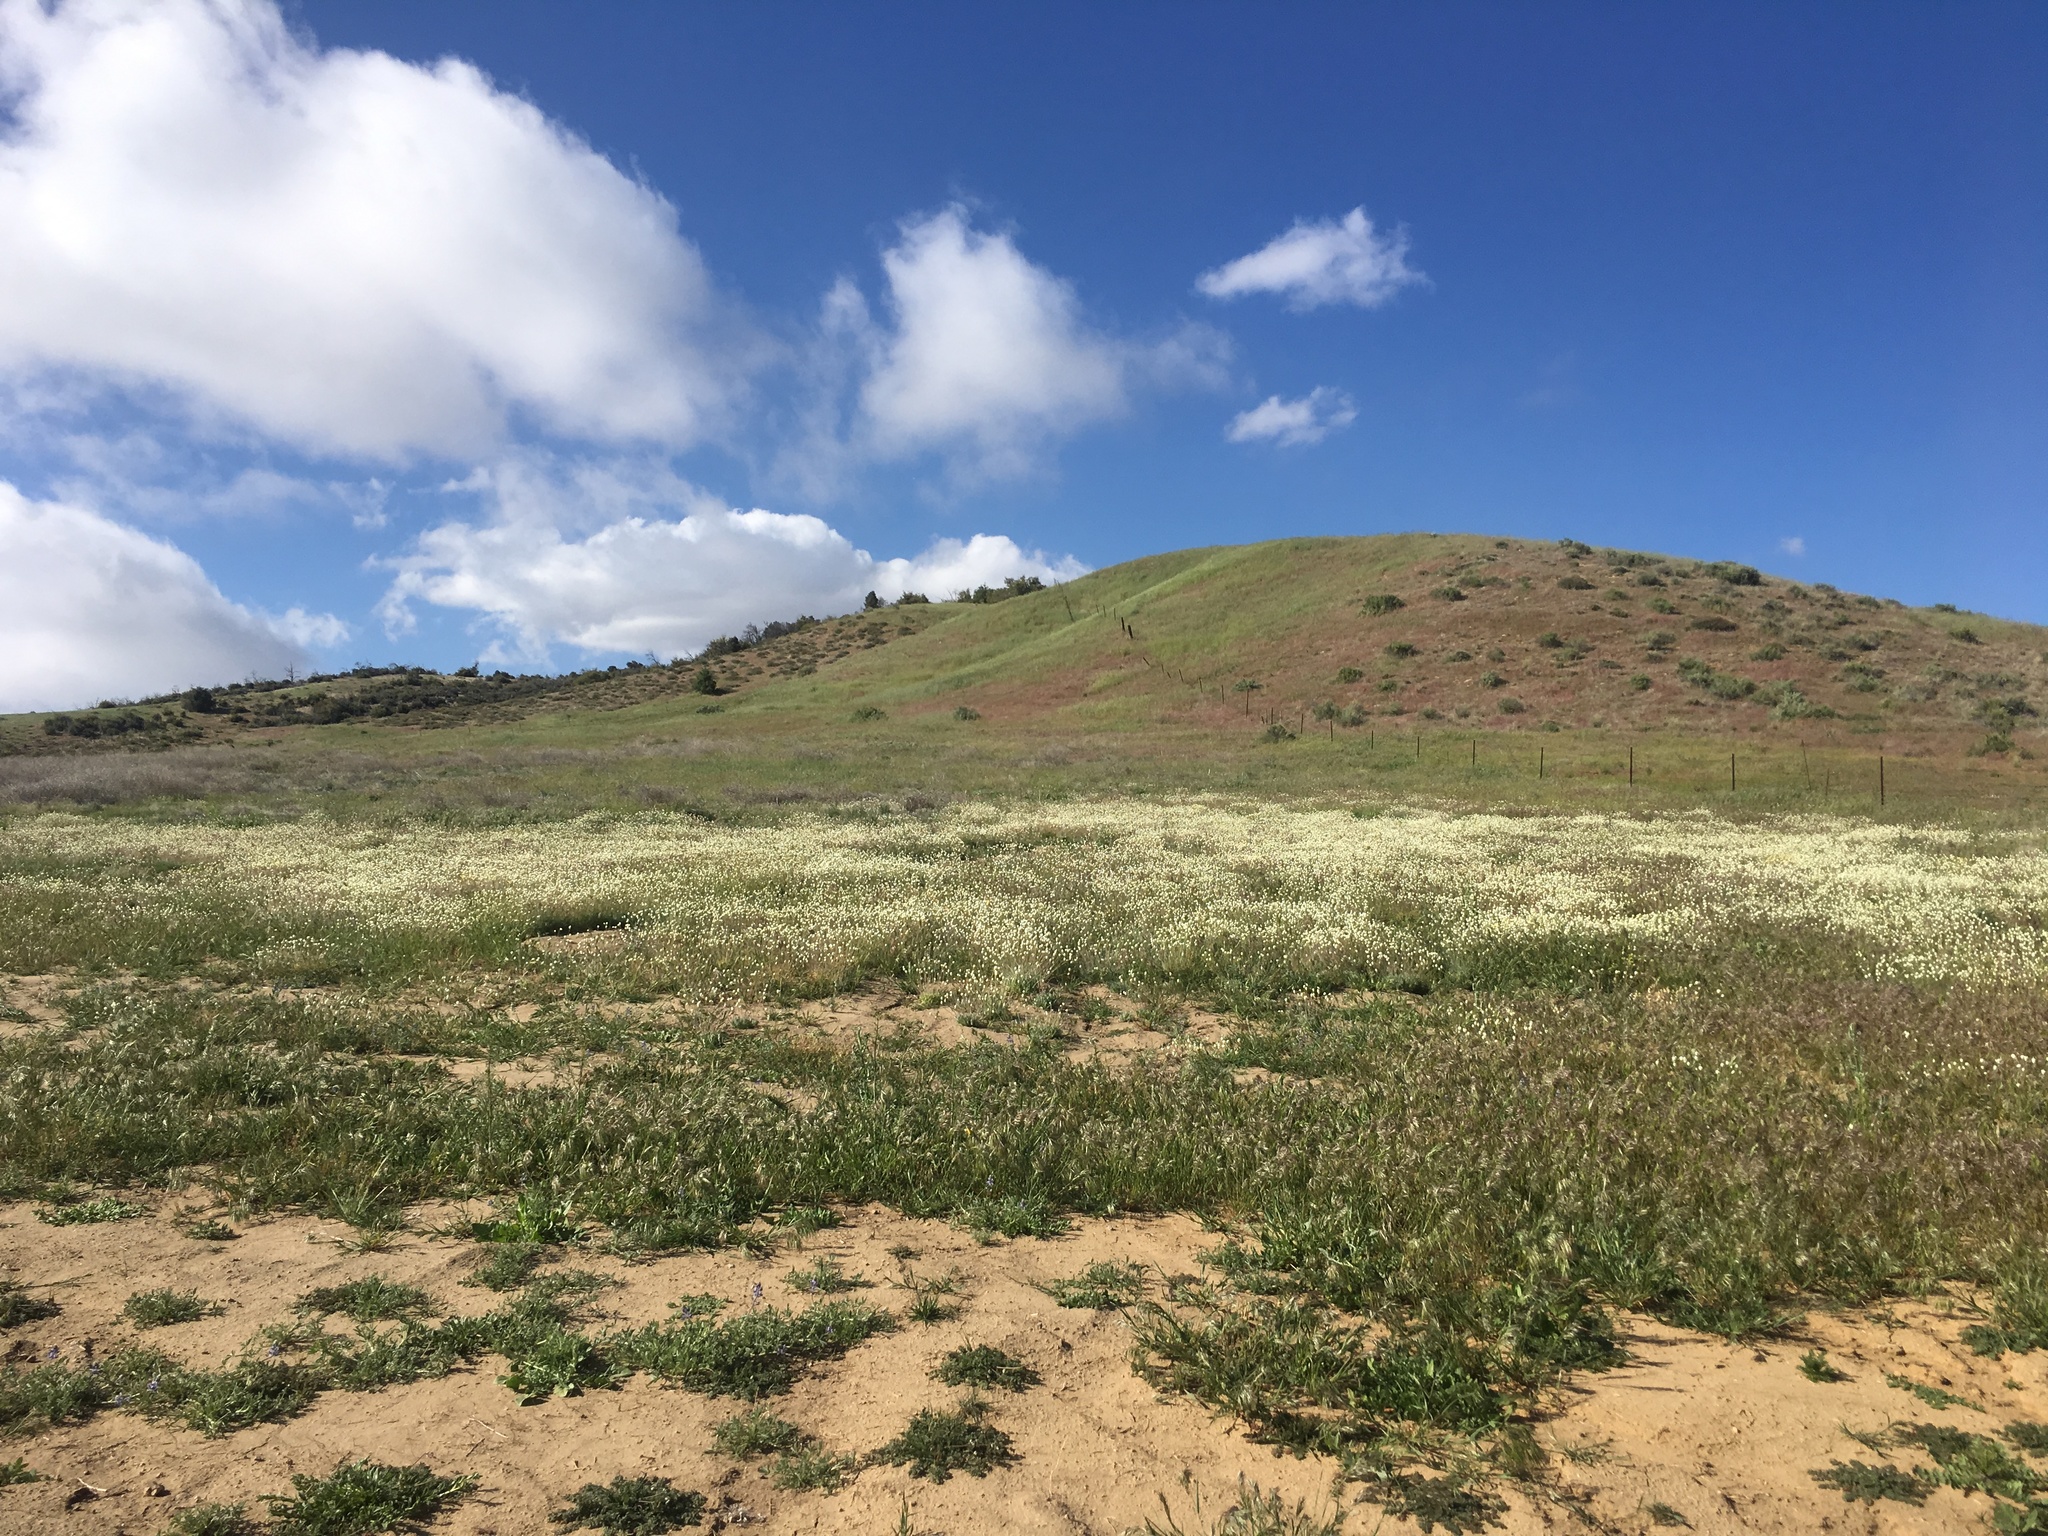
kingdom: Plantae
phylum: Tracheophyta
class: Magnoliopsida
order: Ranunculales
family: Papaveraceae
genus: Platystemon
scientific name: Platystemon californicus
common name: Cream-cups
